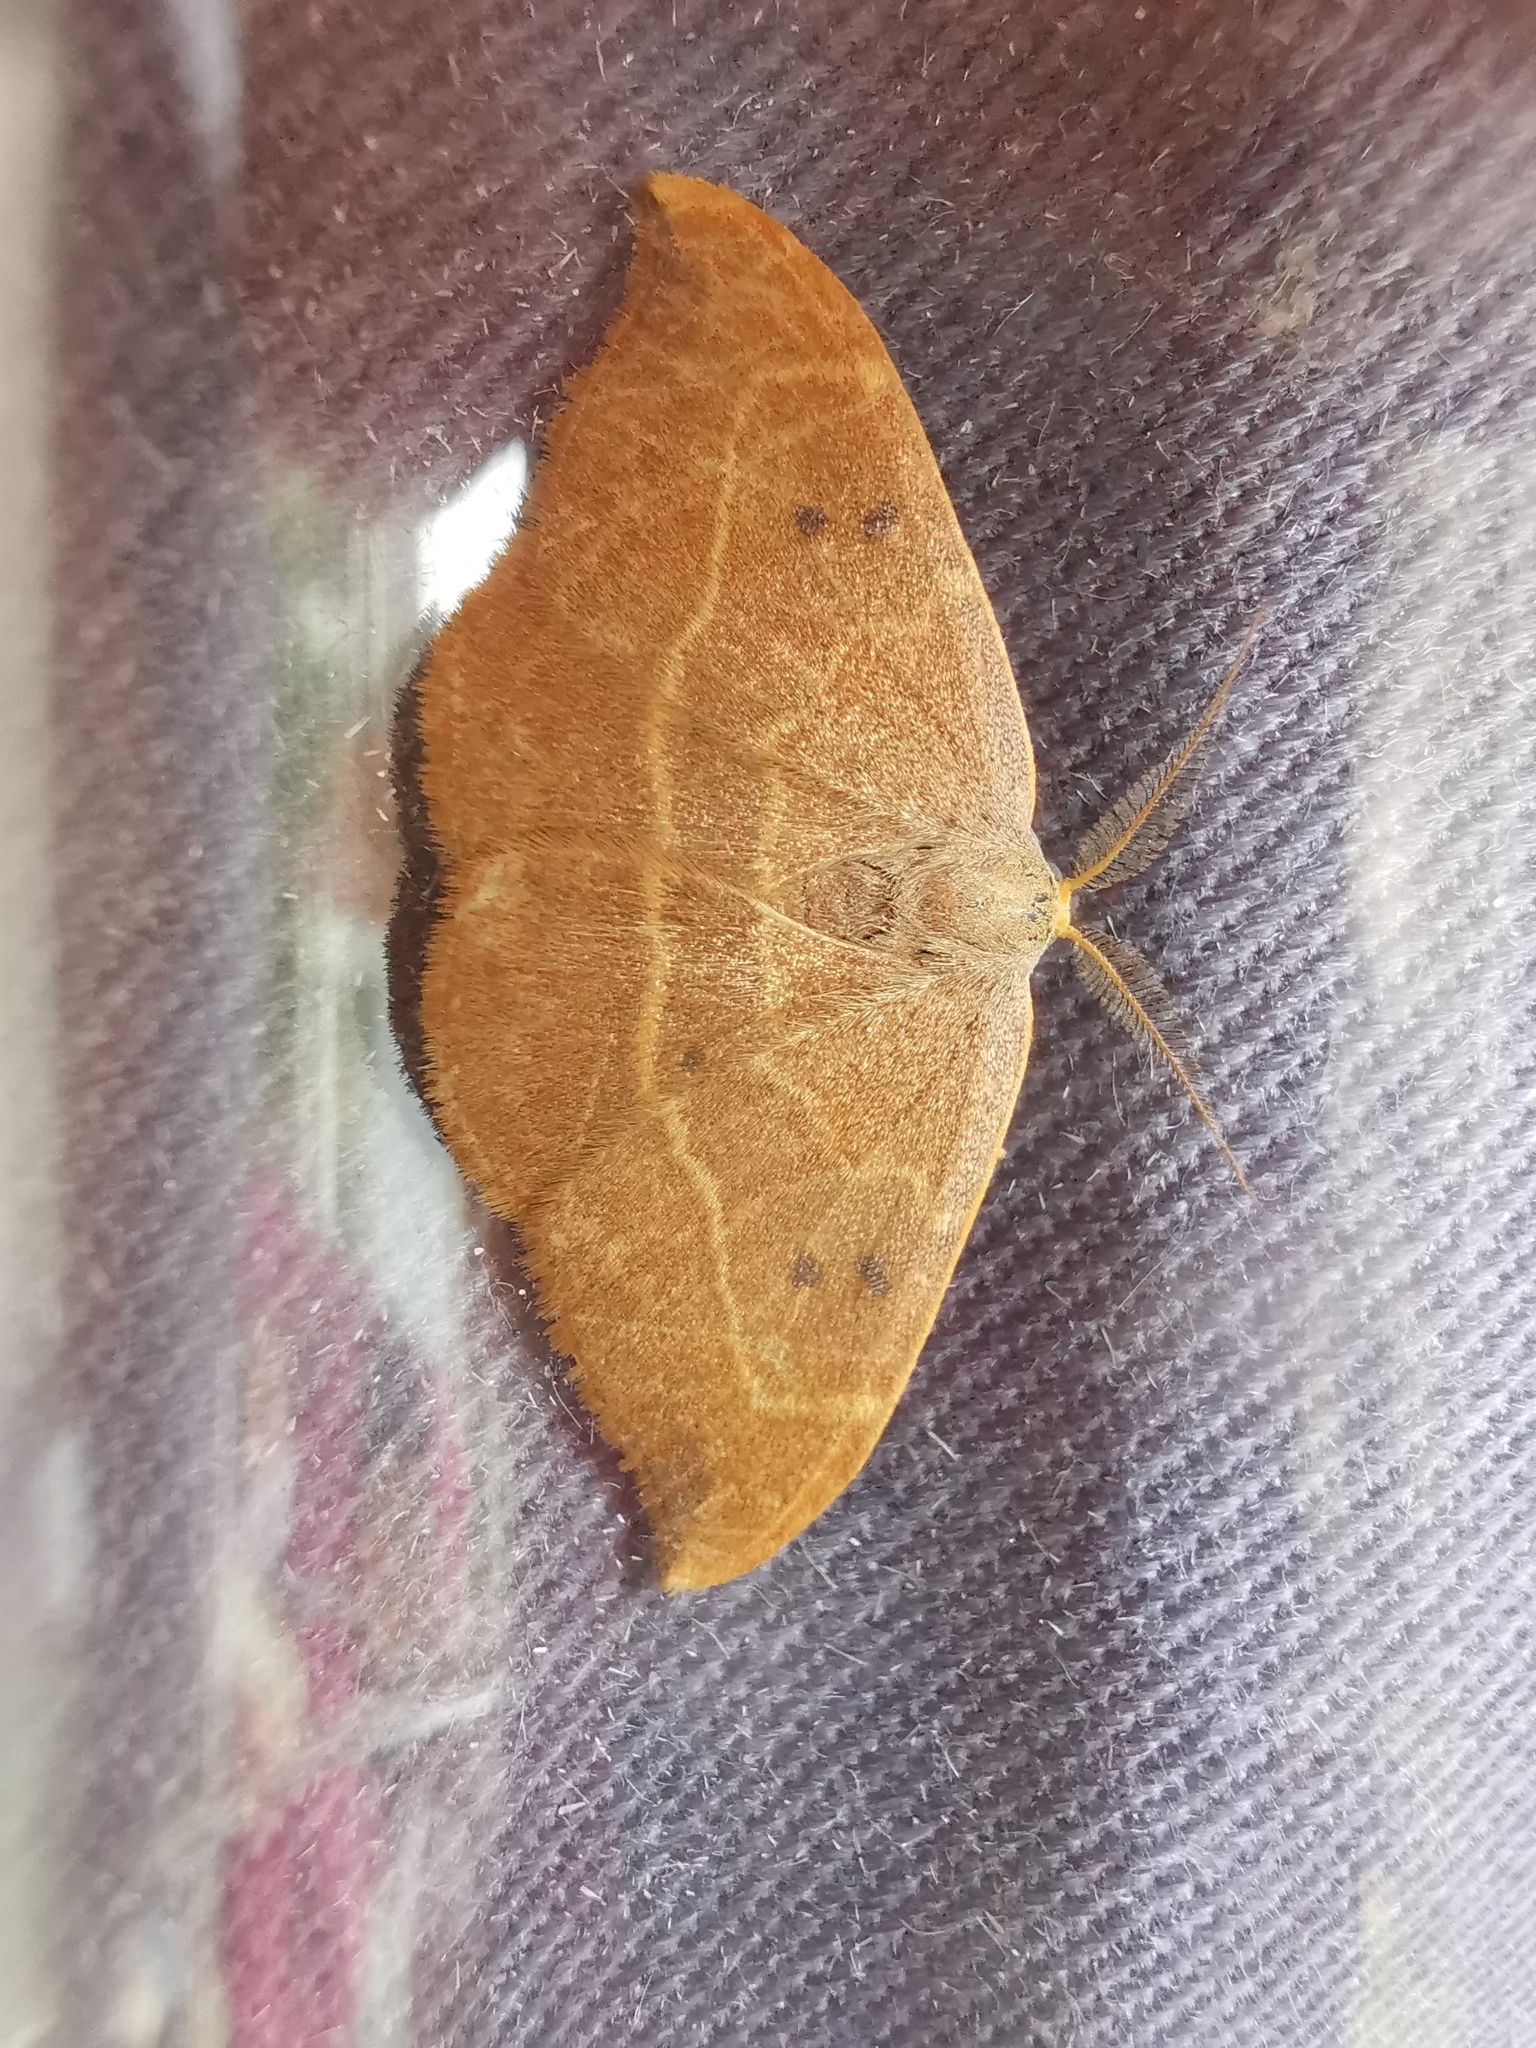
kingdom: Animalia
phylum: Arthropoda
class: Insecta
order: Lepidoptera
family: Drepanidae
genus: Watsonalla
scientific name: Watsonalla binaria
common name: Oak hook-tip
